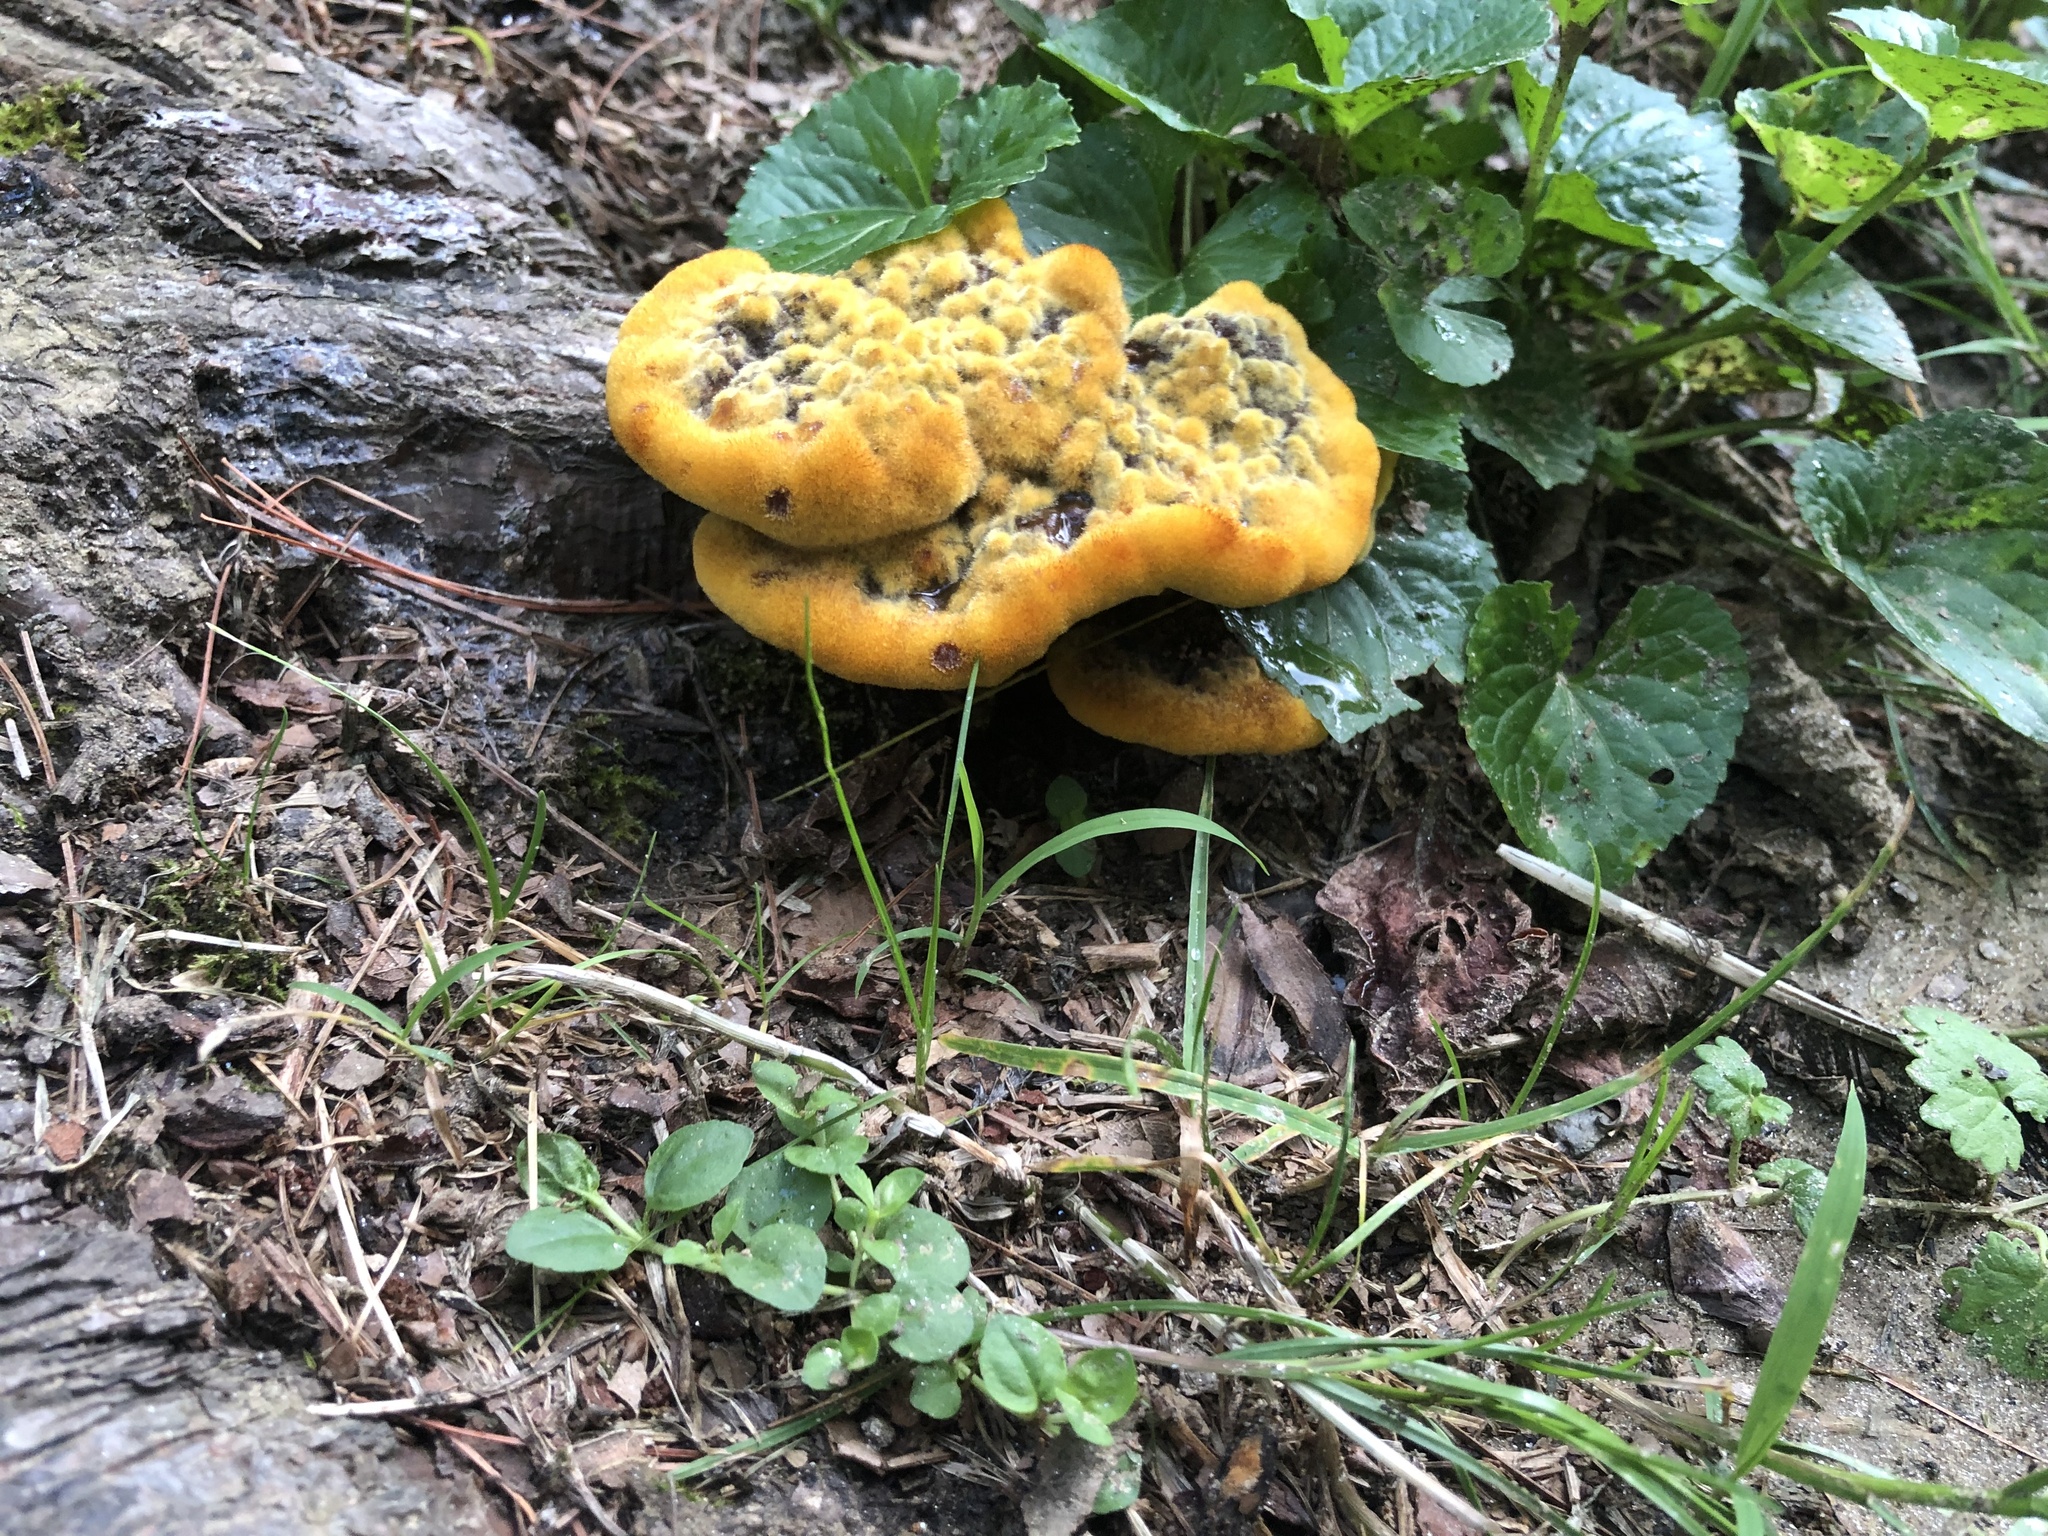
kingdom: Fungi
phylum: Basidiomycota
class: Agaricomycetes
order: Polyporales
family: Laetiporaceae
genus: Phaeolus
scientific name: Phaeolus schweinitzii
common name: Dyer's mazegill
